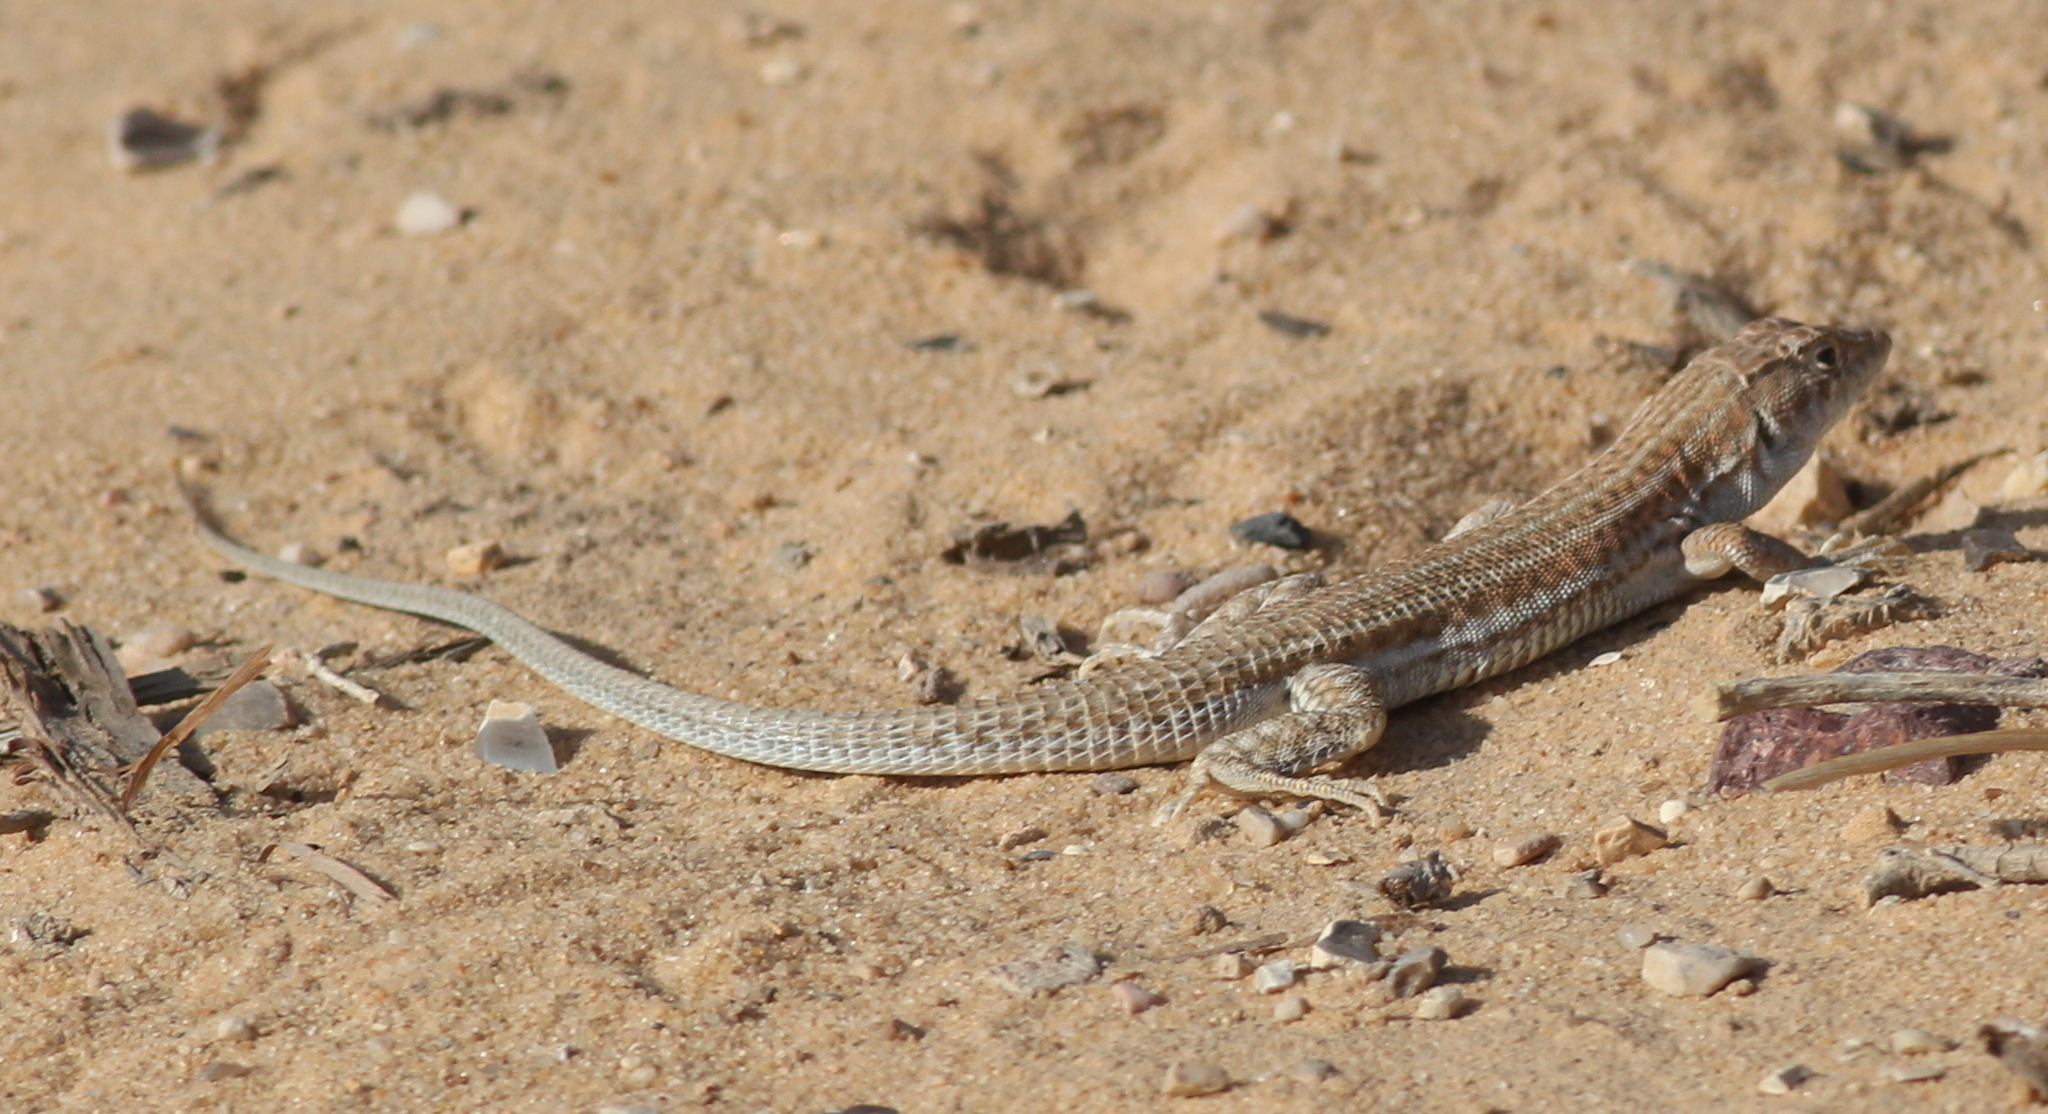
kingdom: Animalia
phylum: Chordata
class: Squamata
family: Lacertidae
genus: Acanthodactylus
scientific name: Acanthodactylus boskianus
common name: Bosc’s fringe-toed lizard
